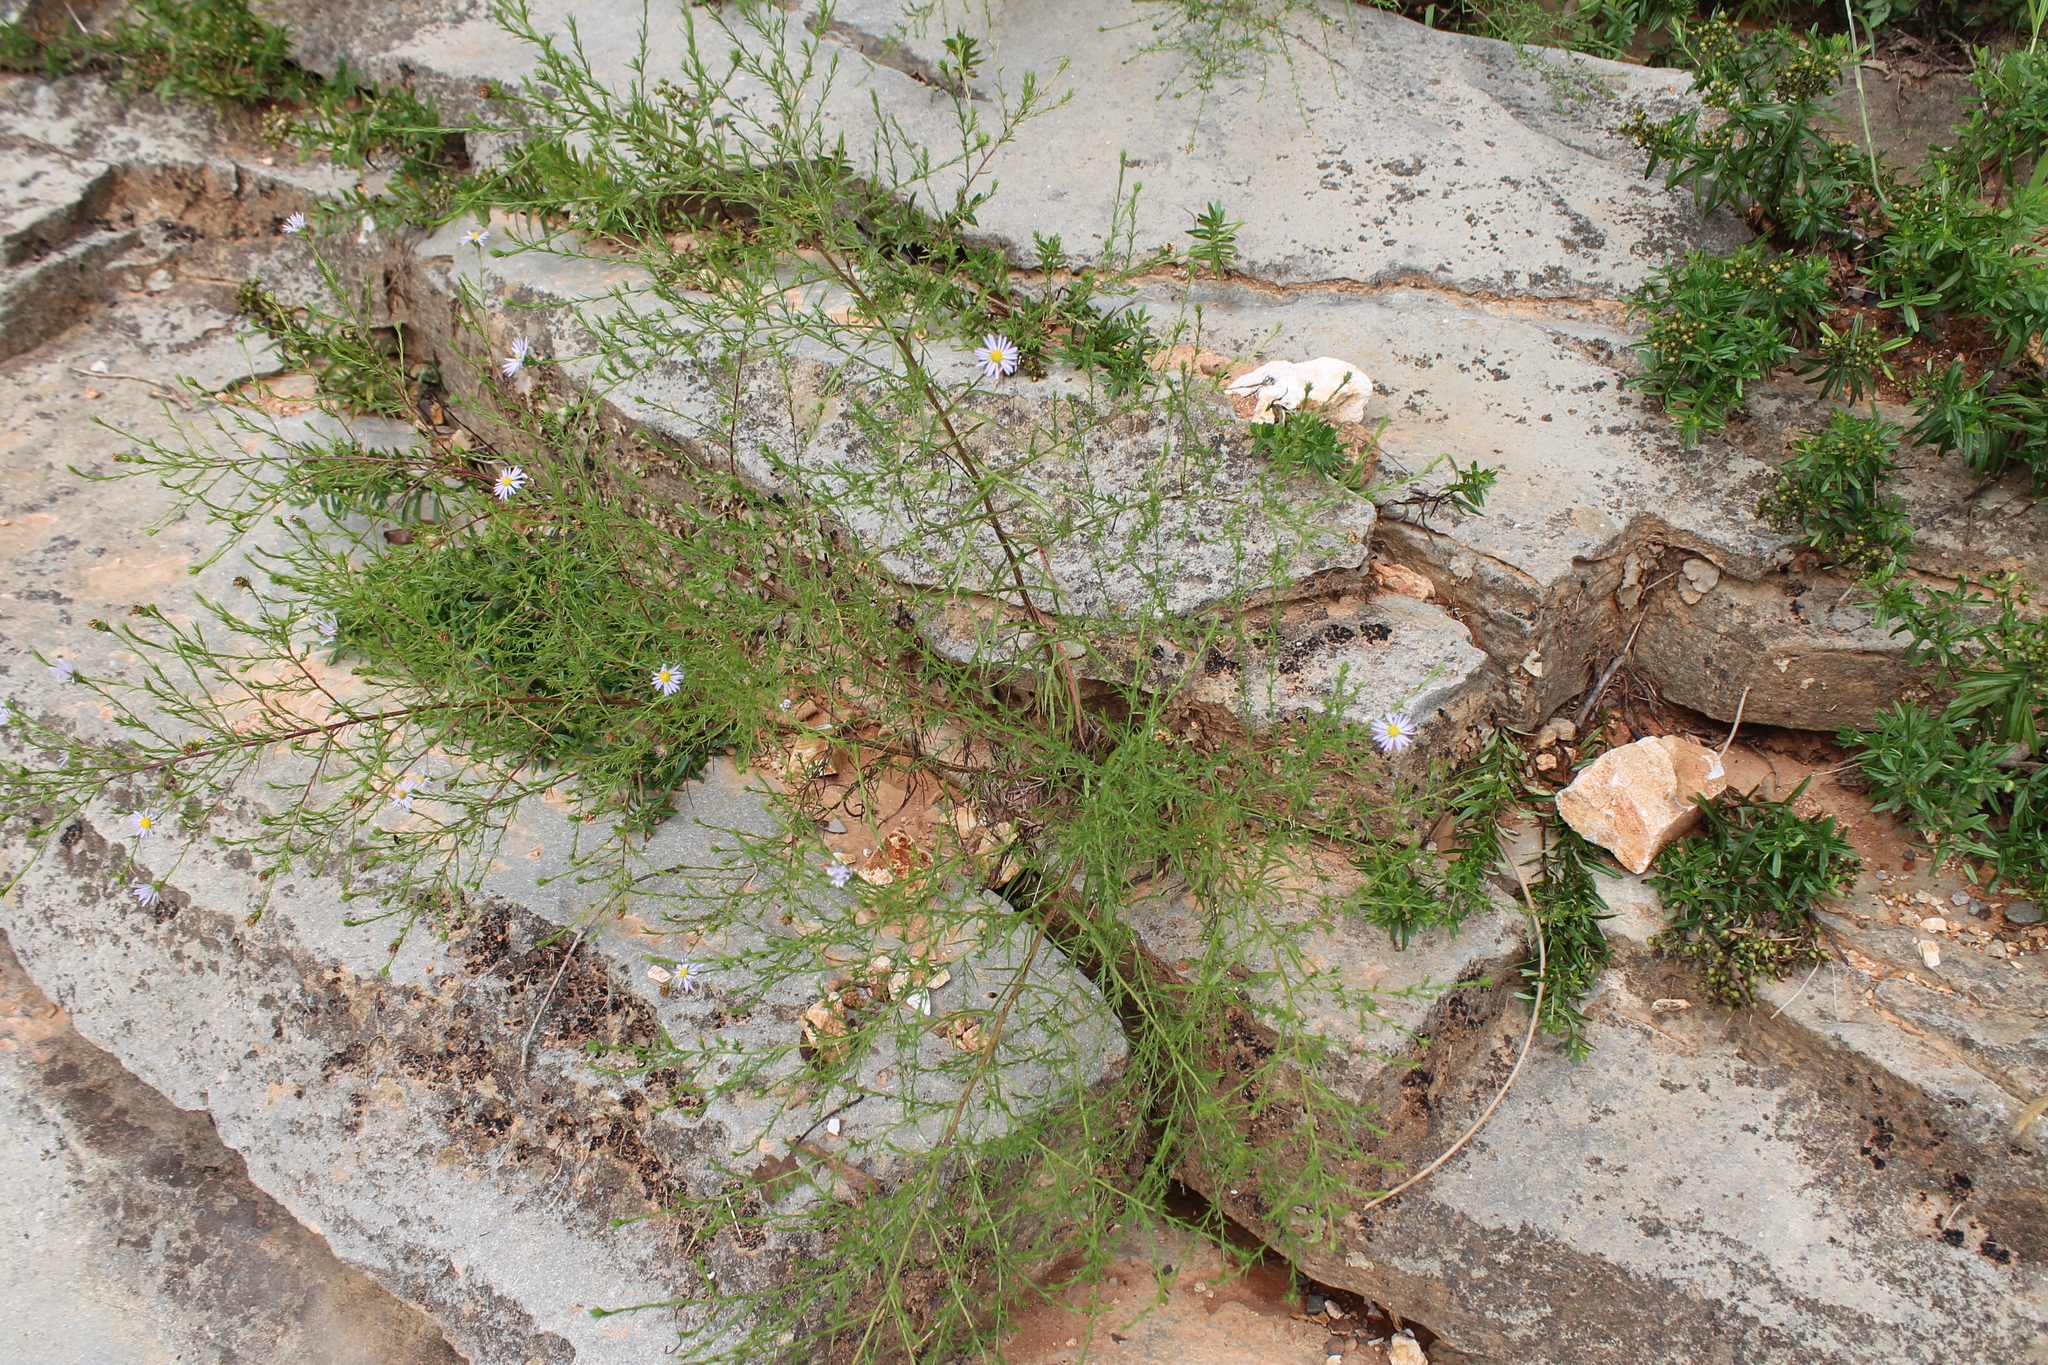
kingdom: Plantae
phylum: Tracheophyta
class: Magnoliopsida
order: Asterales
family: Asteraceae
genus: Symphyotrichum
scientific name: Symphyotrichum kentuckiense
